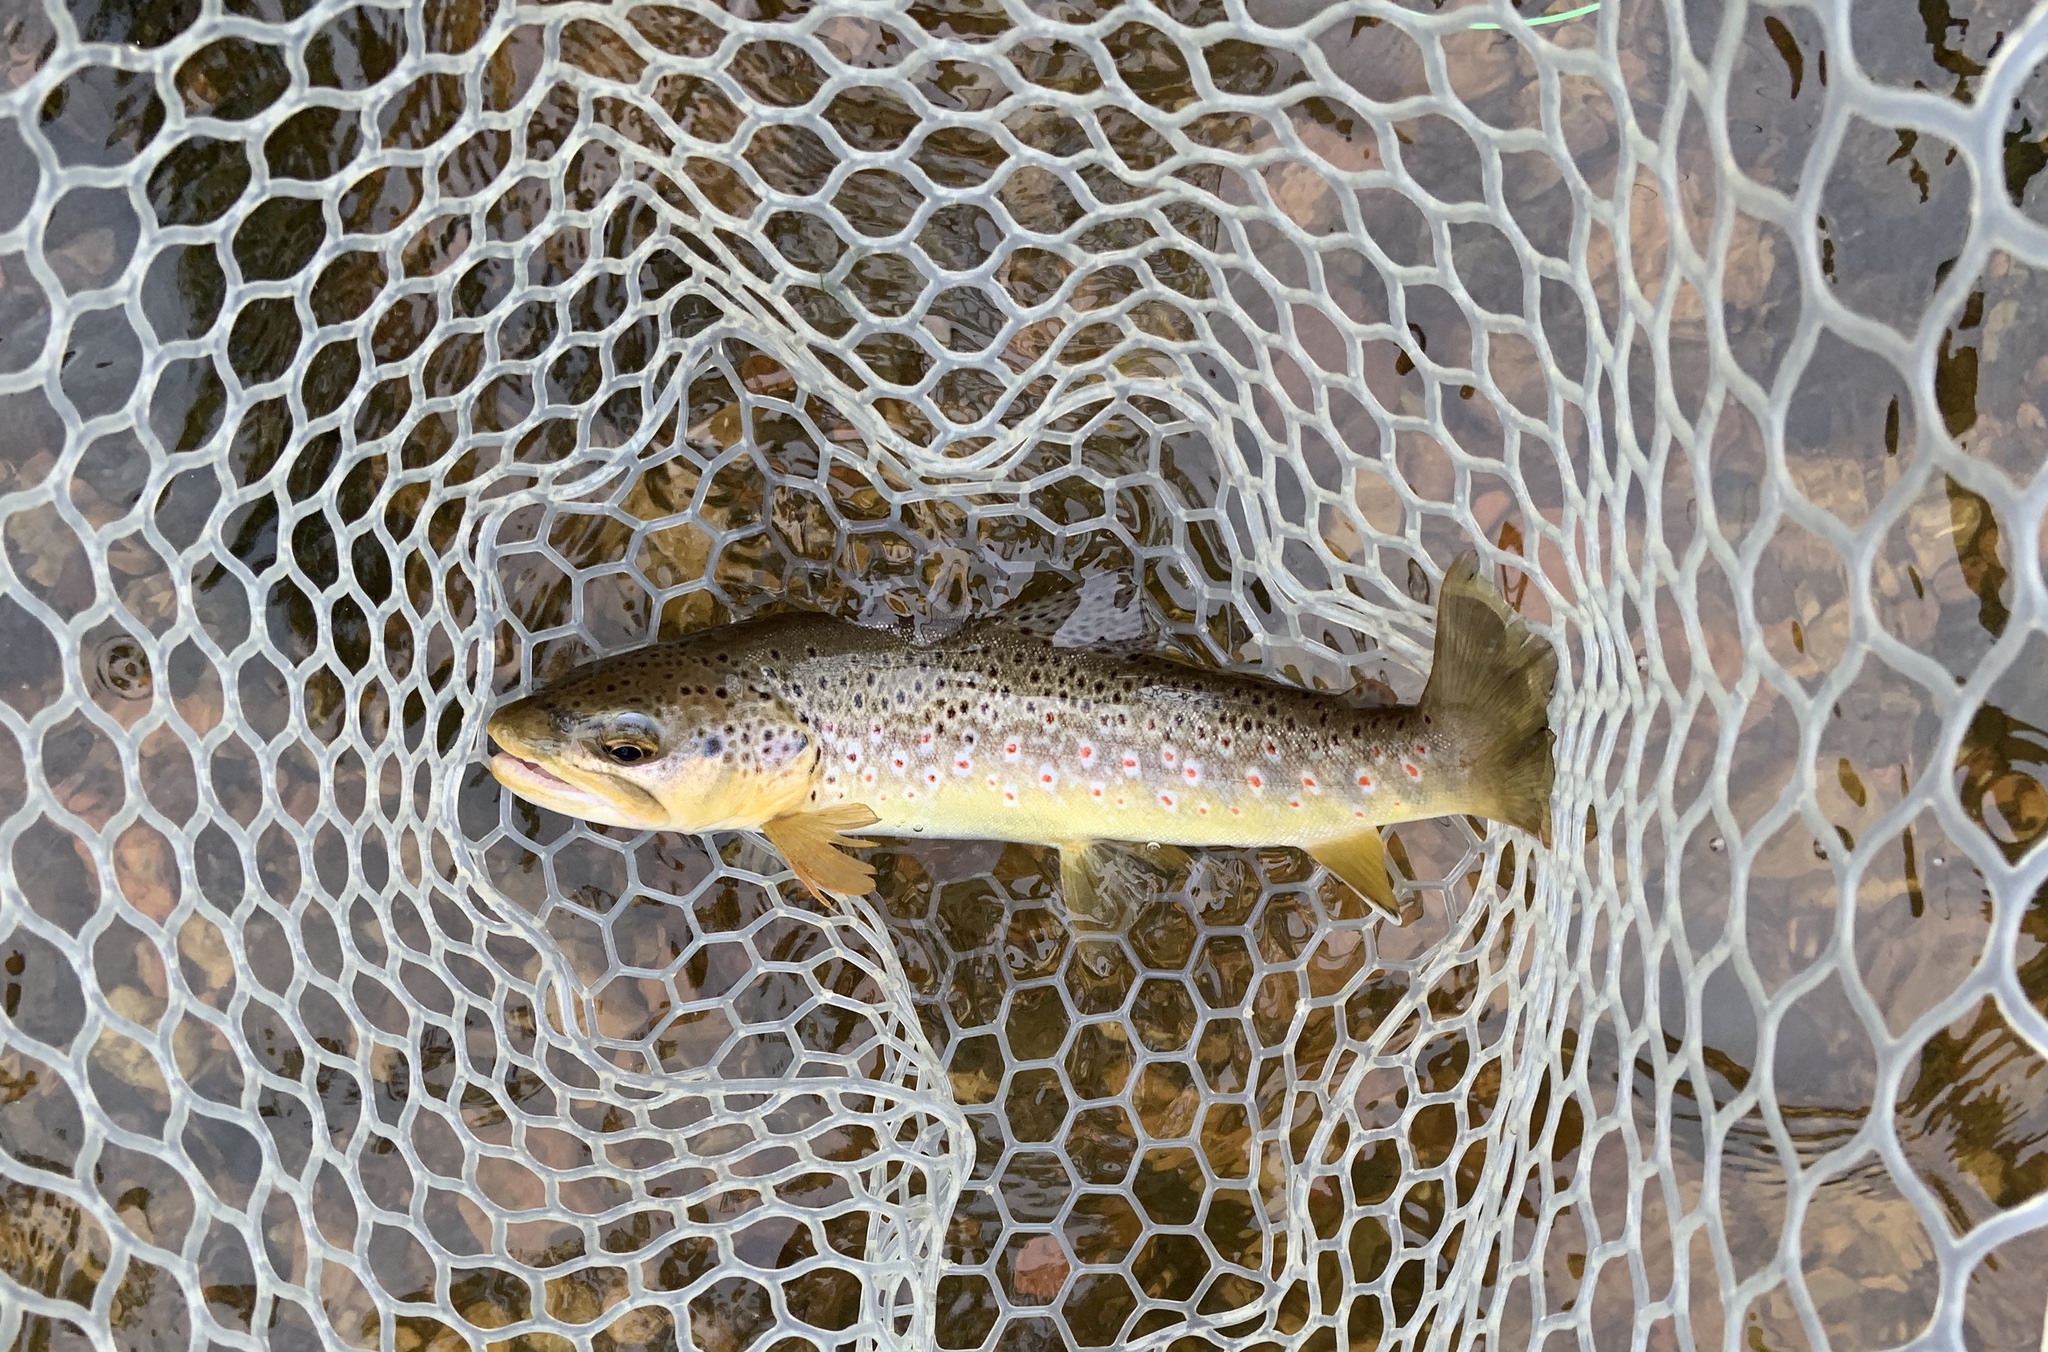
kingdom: Animalia
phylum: Chordata
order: Salmoniformes
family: Salmonidae
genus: Salmo
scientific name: Salmo trutta
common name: Brown trout
